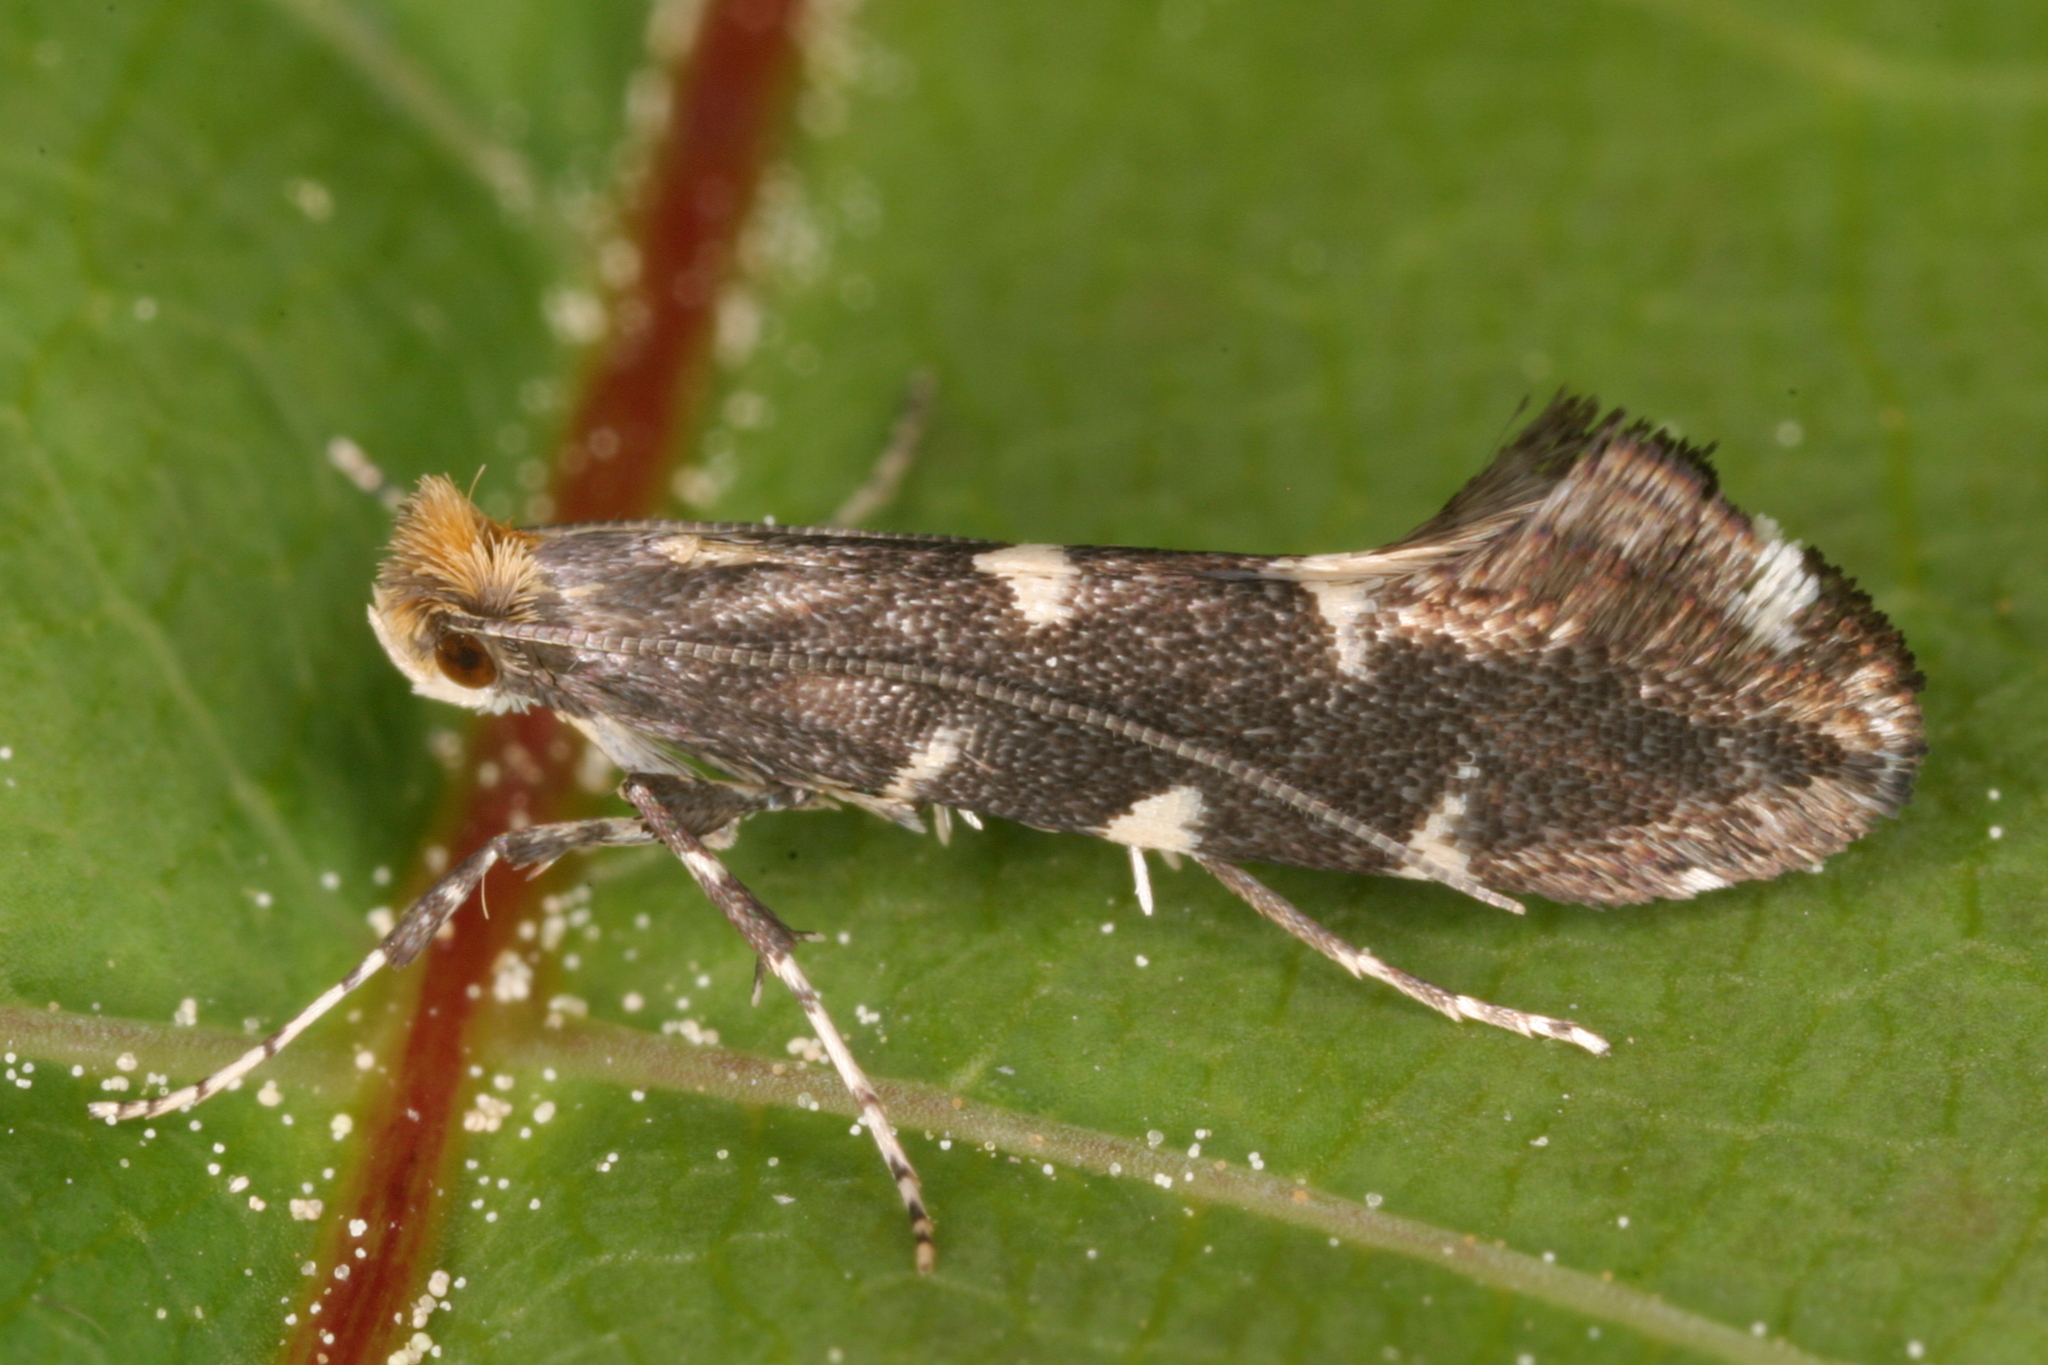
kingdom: Animalia
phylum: Arthropoda
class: Insecta
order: Lepidoptera
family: Gracillariidae
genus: Callisto
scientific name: Callisto denticulella
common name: Garden apple slender
